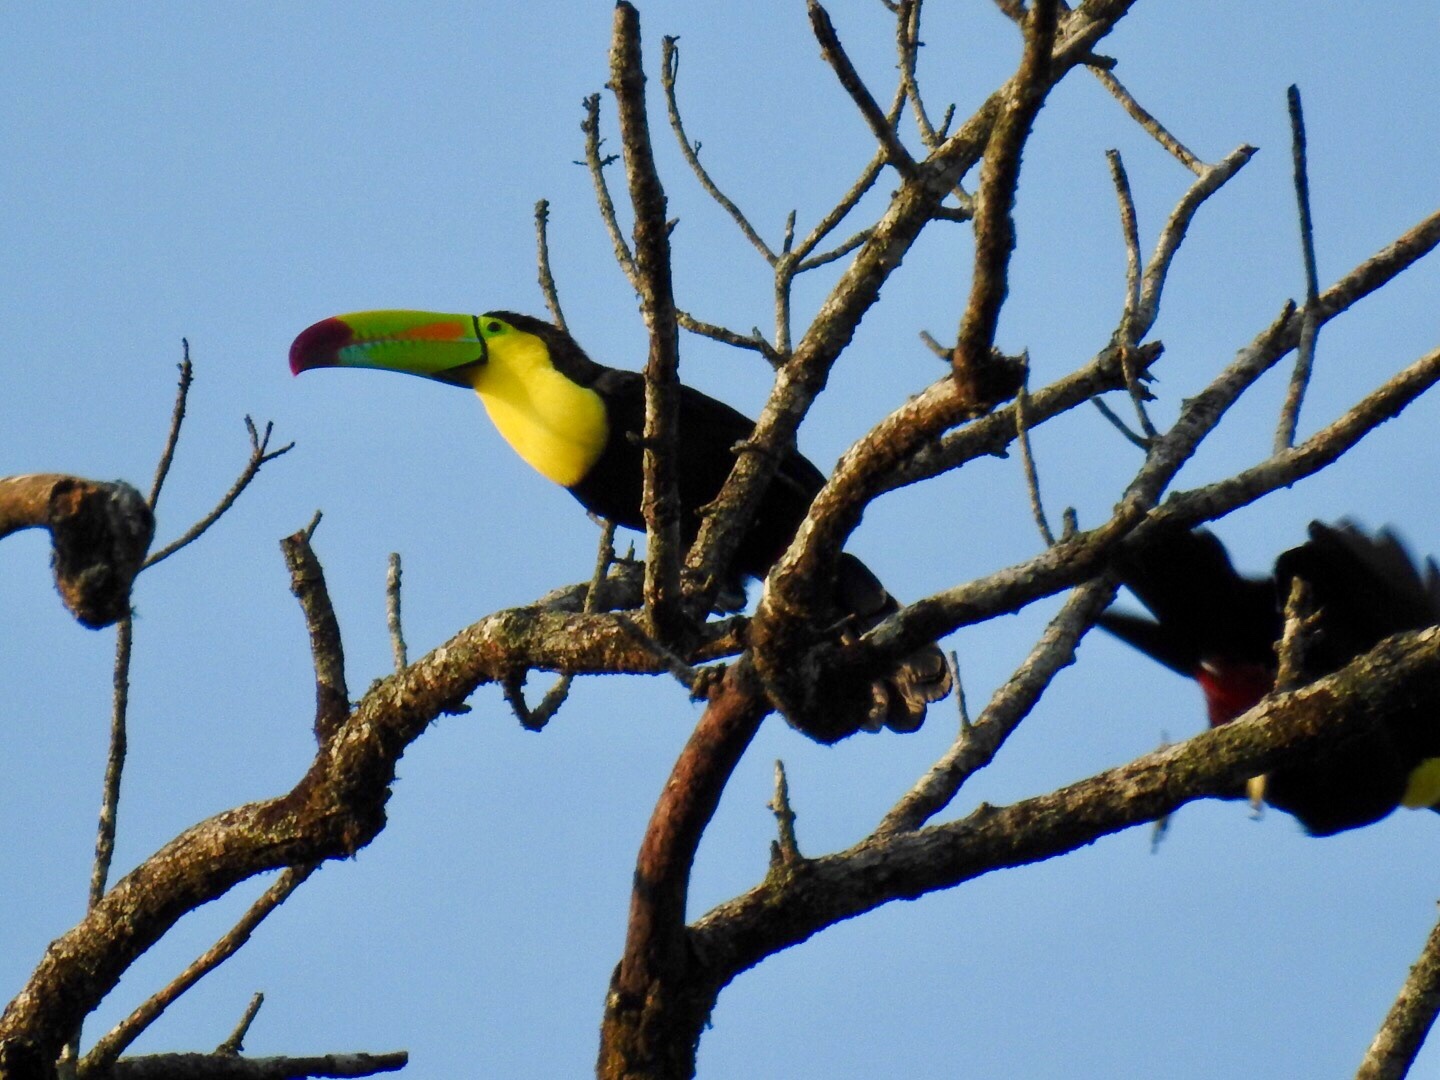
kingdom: Animalia
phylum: Chordata
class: Aves
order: Piciformes
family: Ramphastidae
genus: Ramphastos
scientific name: Ramphastos sulfuratus
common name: Keel-billed toucan
